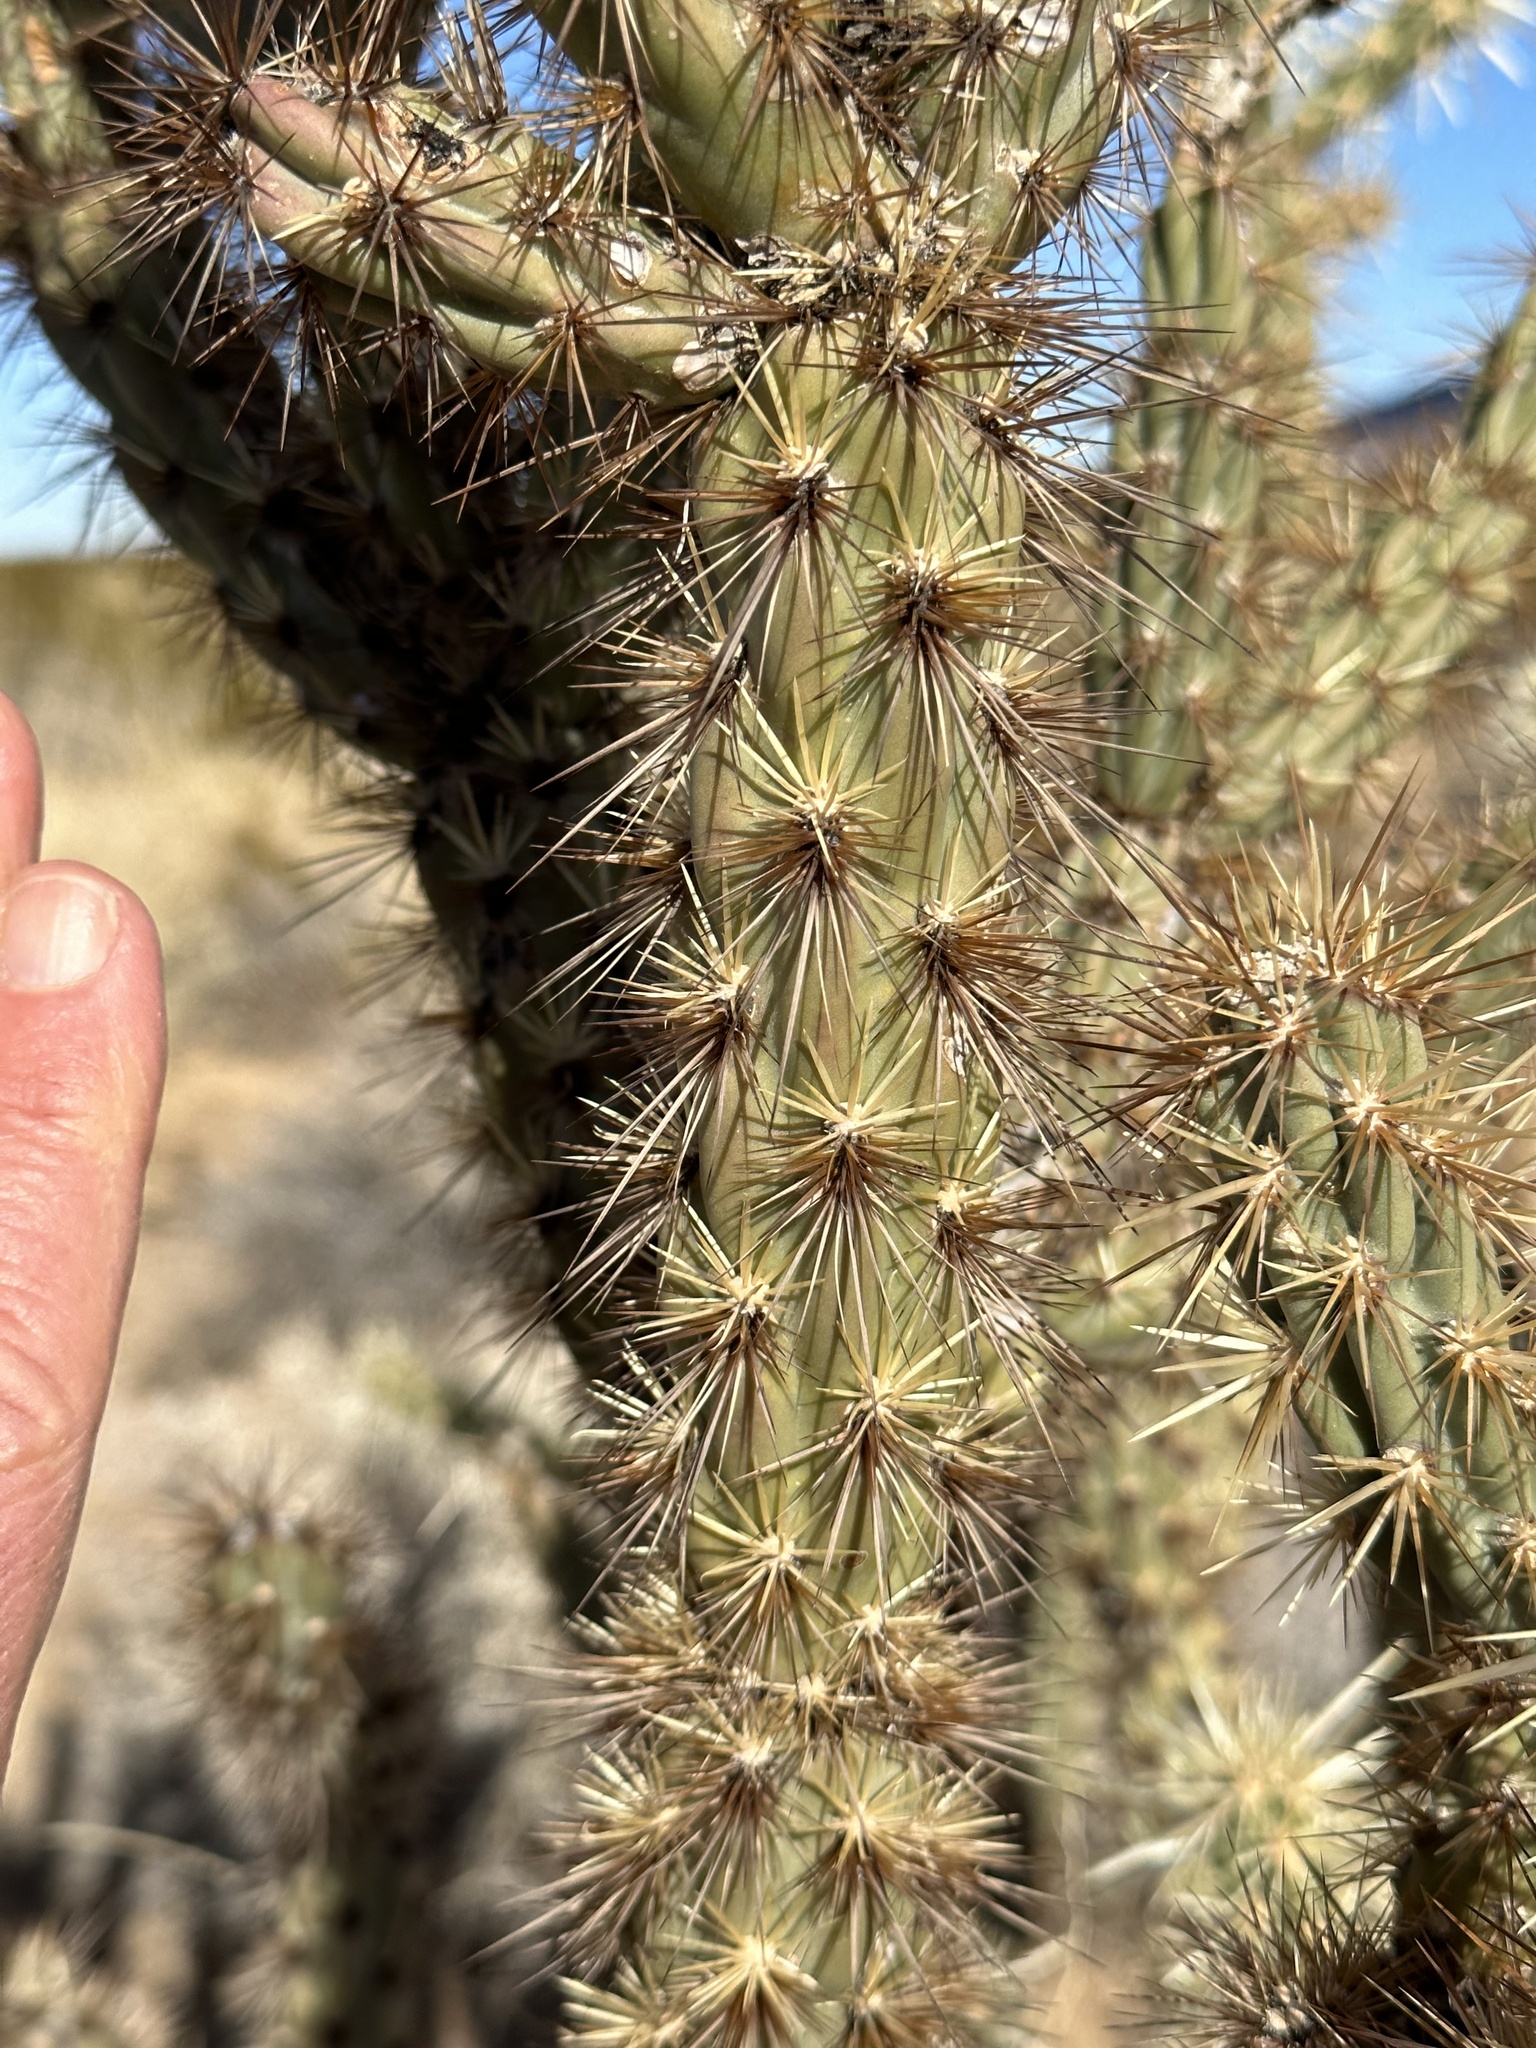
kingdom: Plantae
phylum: Tracheophyta
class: Magnoliopsida
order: Caryophyllales
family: Cactaceae
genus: Cylindropuntia
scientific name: Cylindropuntia acanthocarpa
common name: Buckhorn cholla
